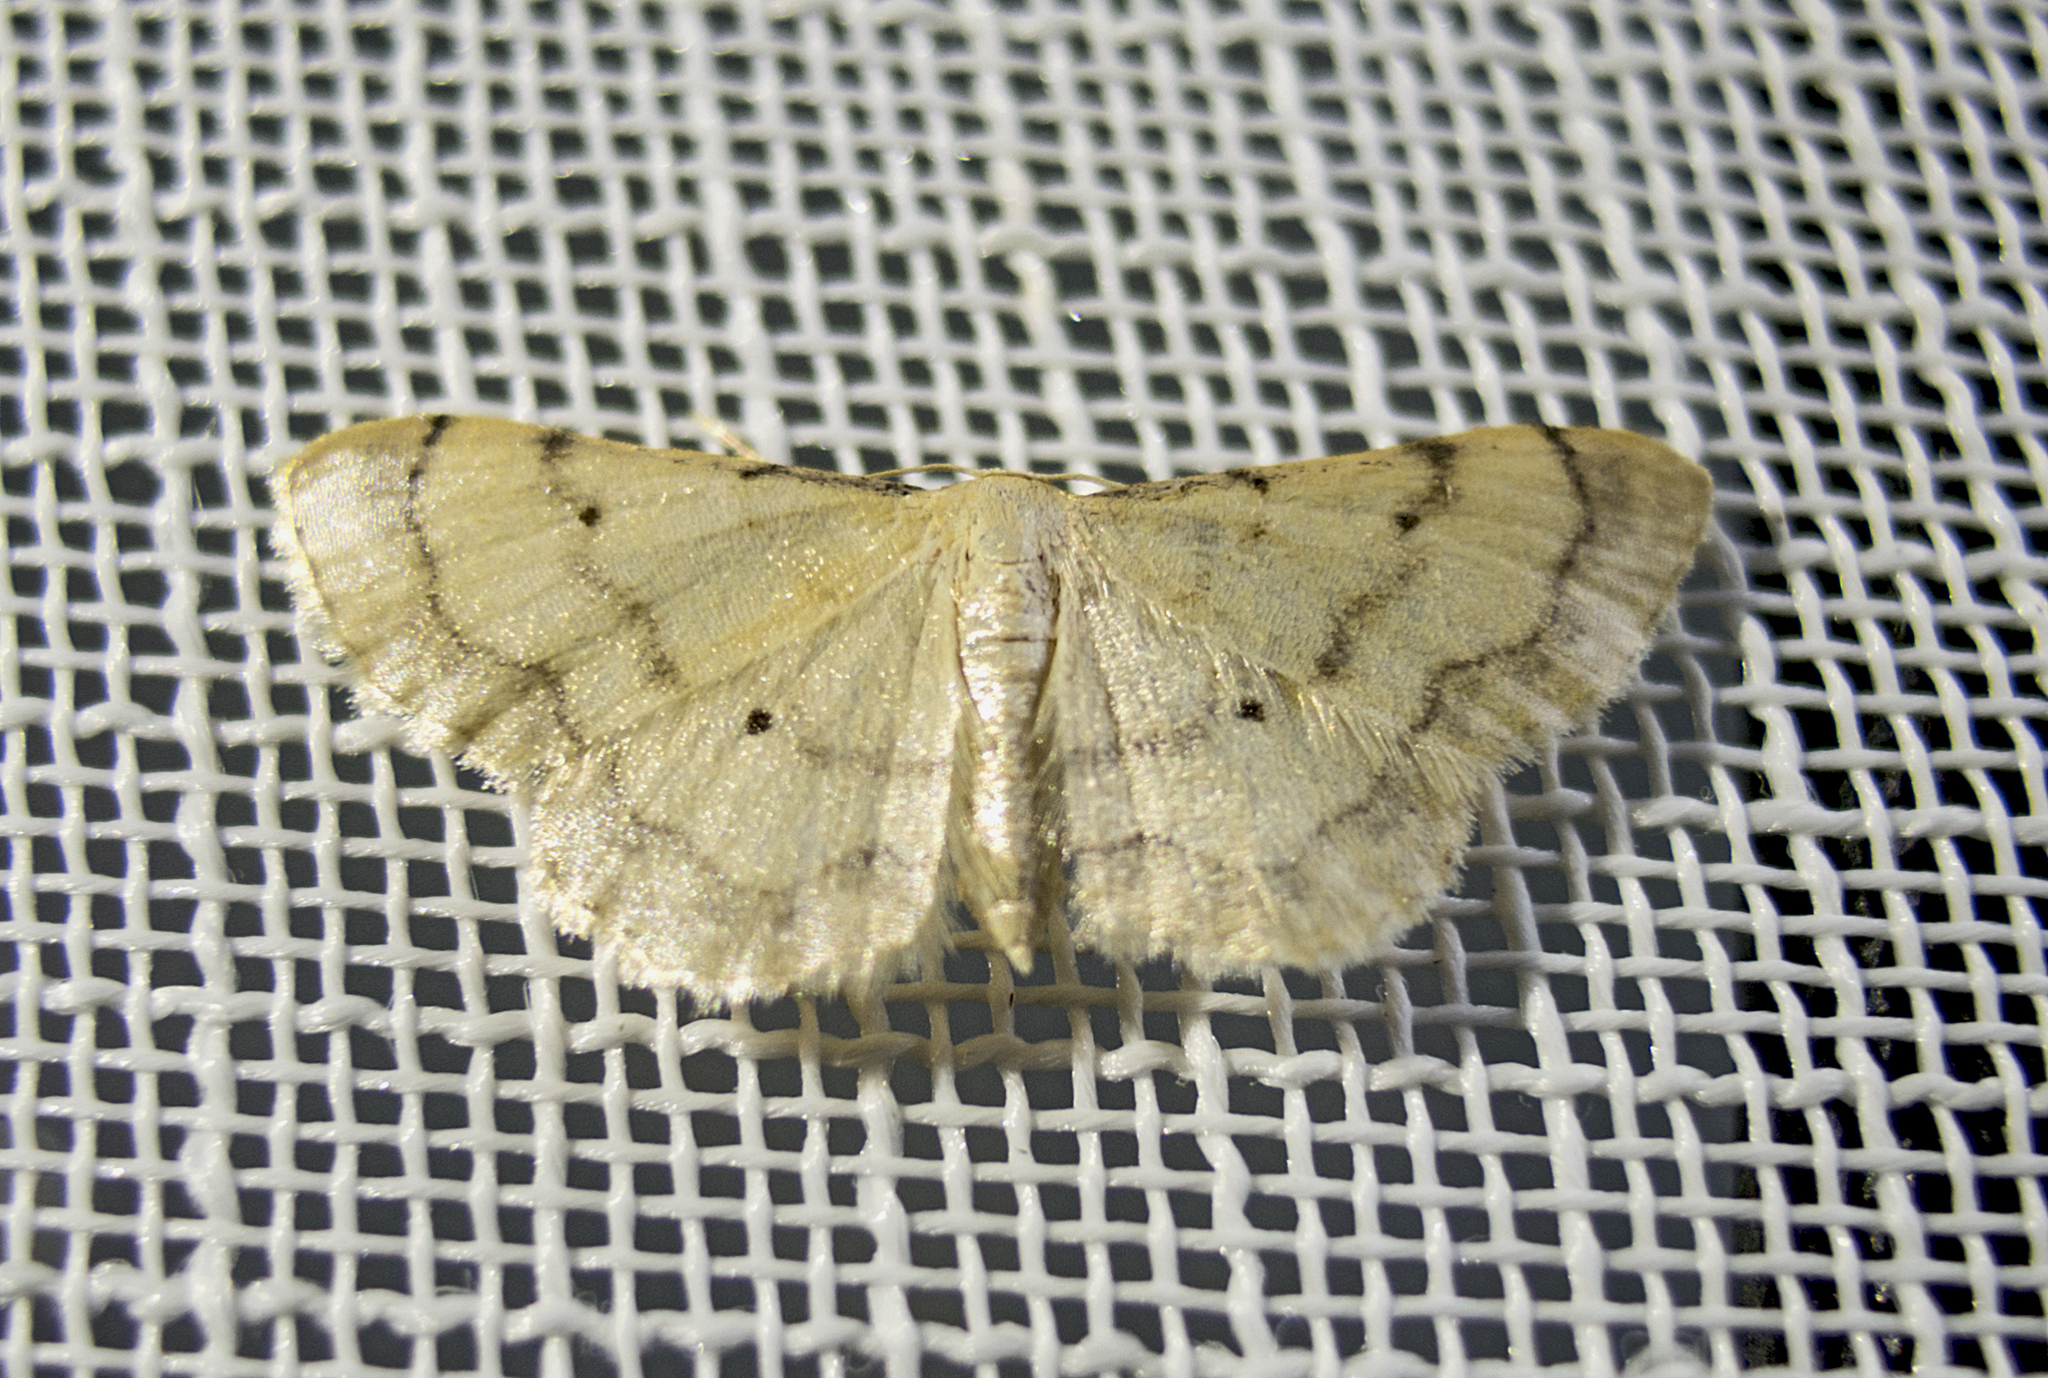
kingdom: Animalia
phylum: Arthropoda
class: Insecta
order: Lepidoptera
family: Geometridae
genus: Idaea
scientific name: Idaea politaria
